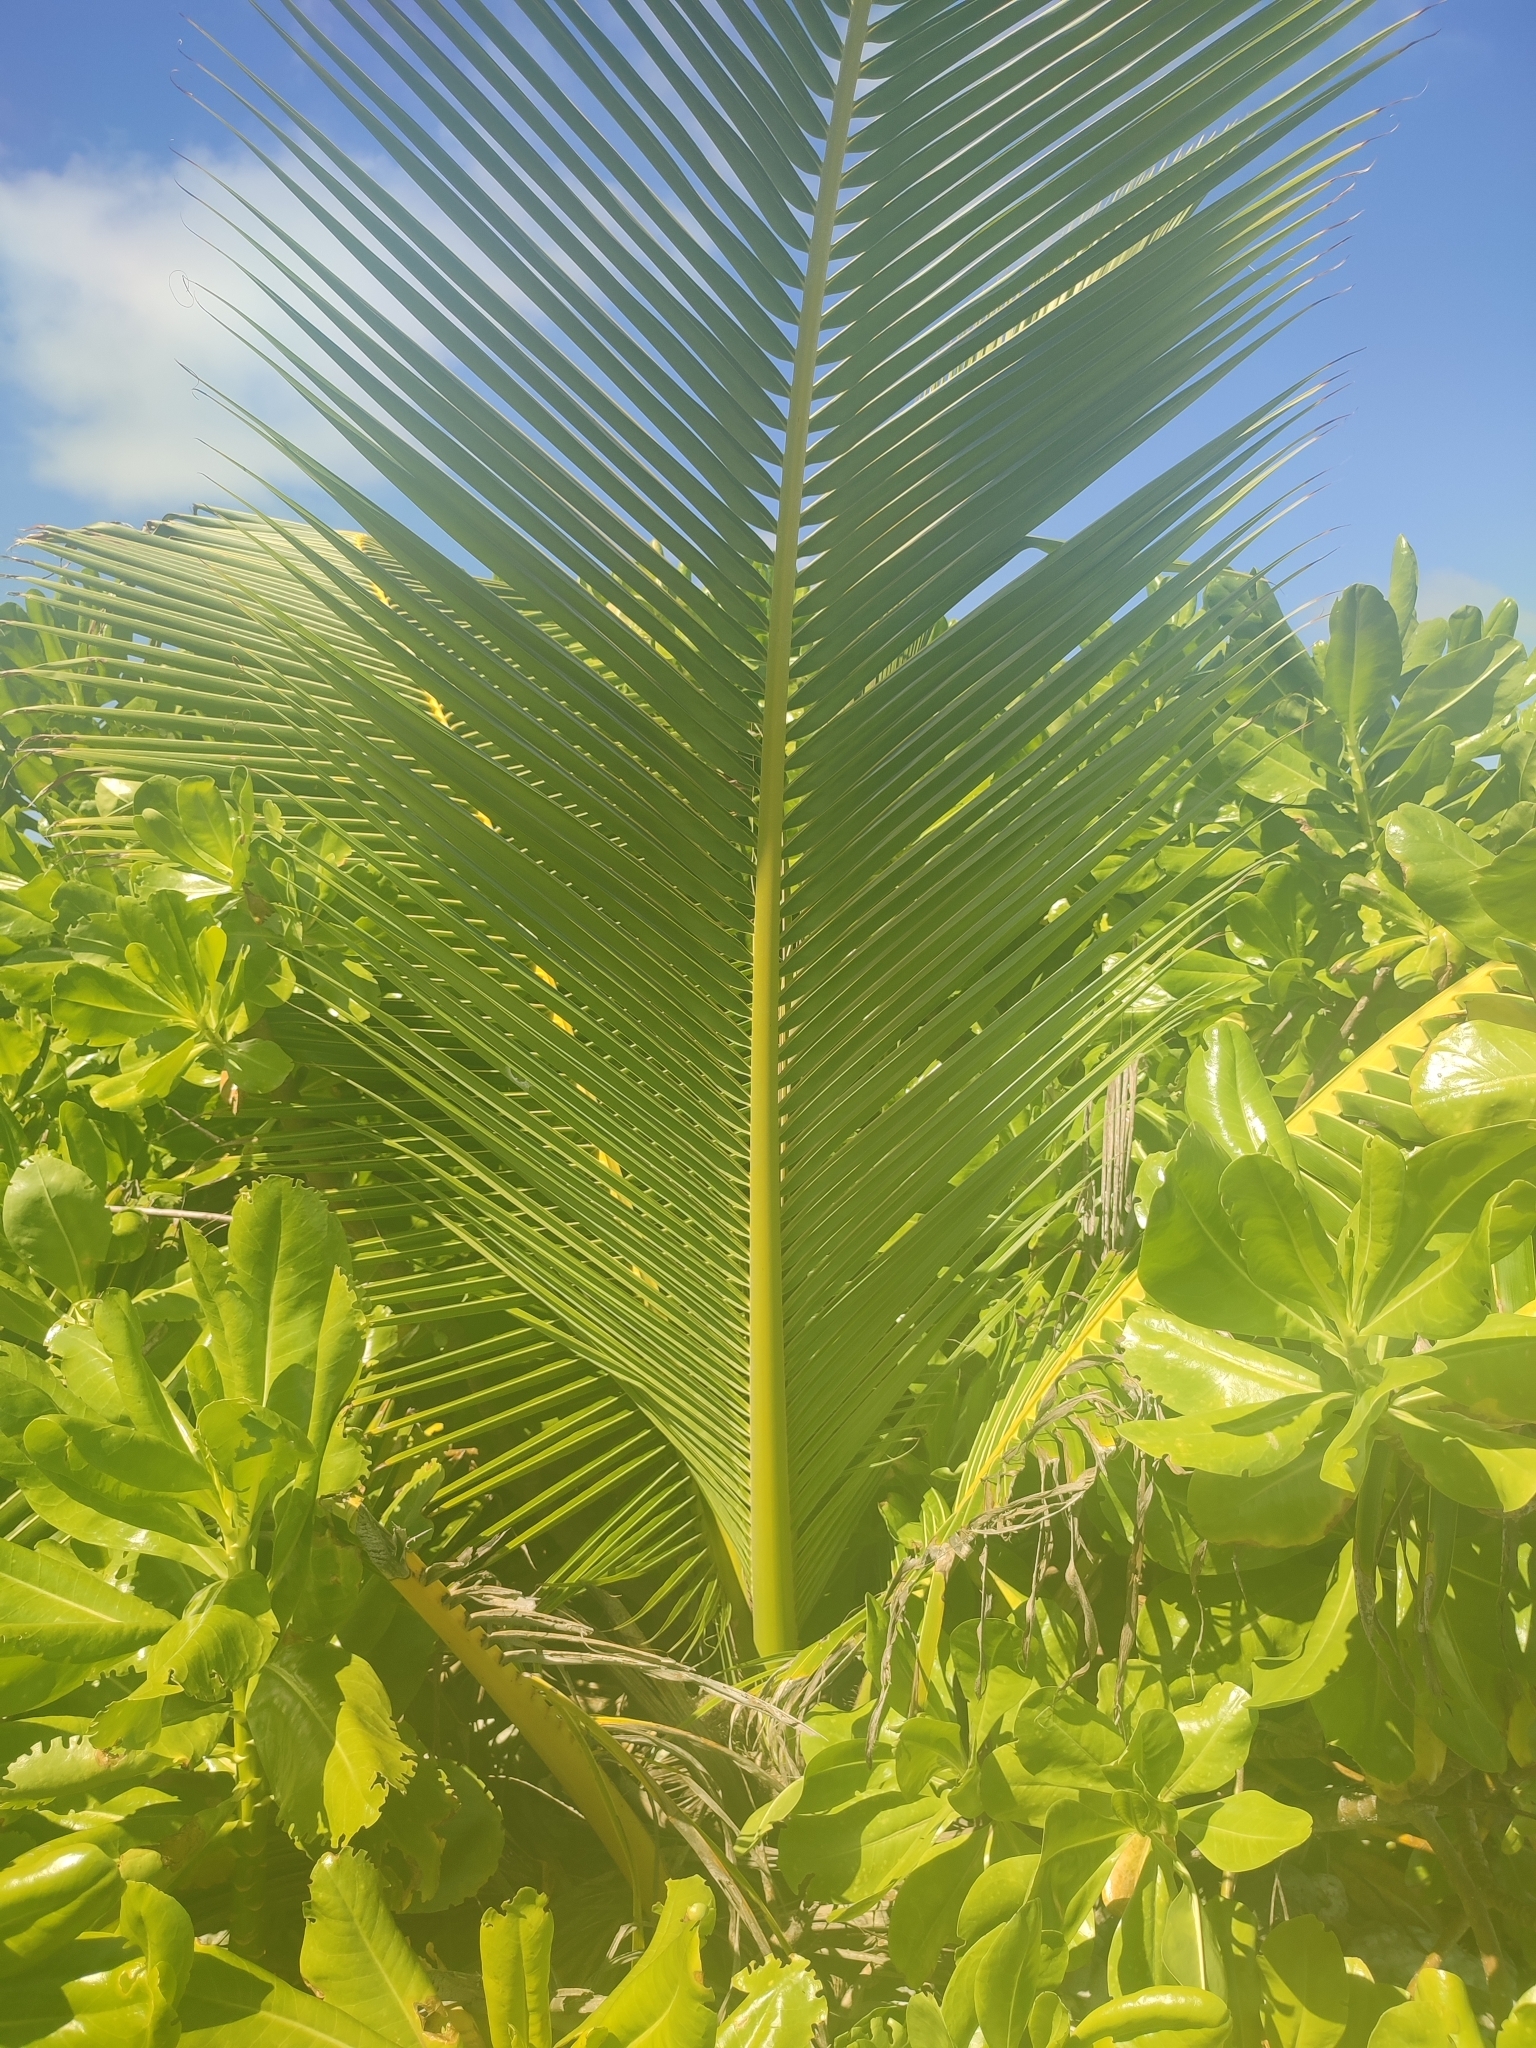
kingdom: Plantae
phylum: Tracheophyta
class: Liliopsida
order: Arecales
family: Arecaceae
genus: Cocos
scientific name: Cocos nucifera
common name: Coconut palm
